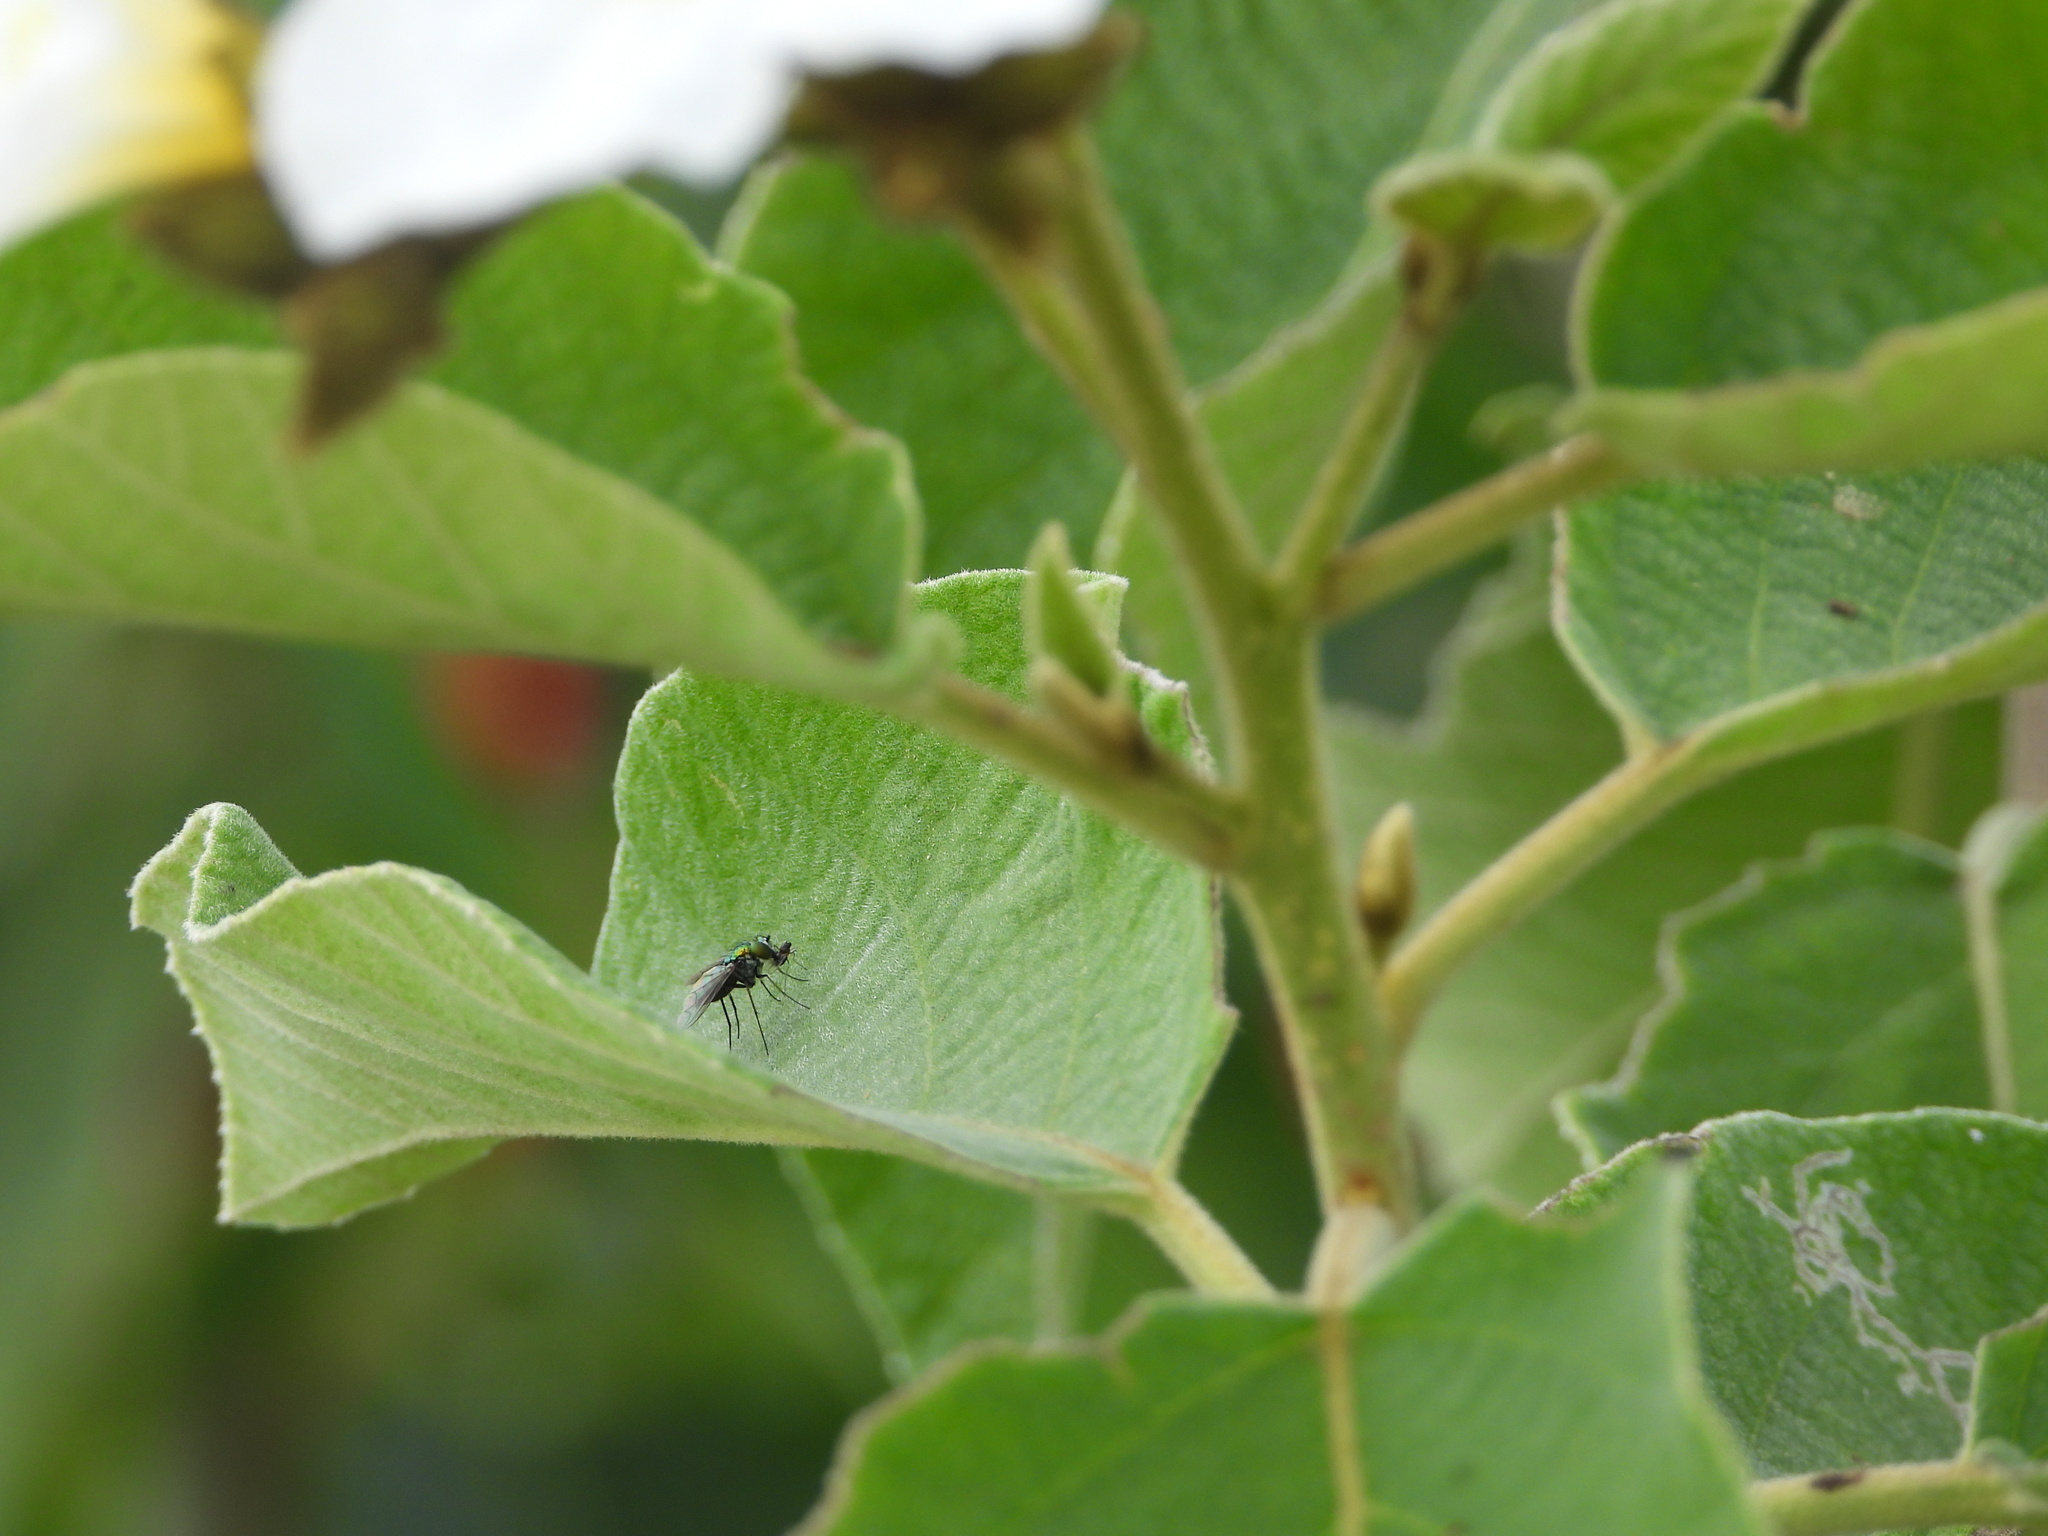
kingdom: Animalia
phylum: Arthropoda
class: Insecta
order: Diptera
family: Dolichopodidae
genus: Condylostylus
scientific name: Condylostylus longicornis
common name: Long-legged fly
